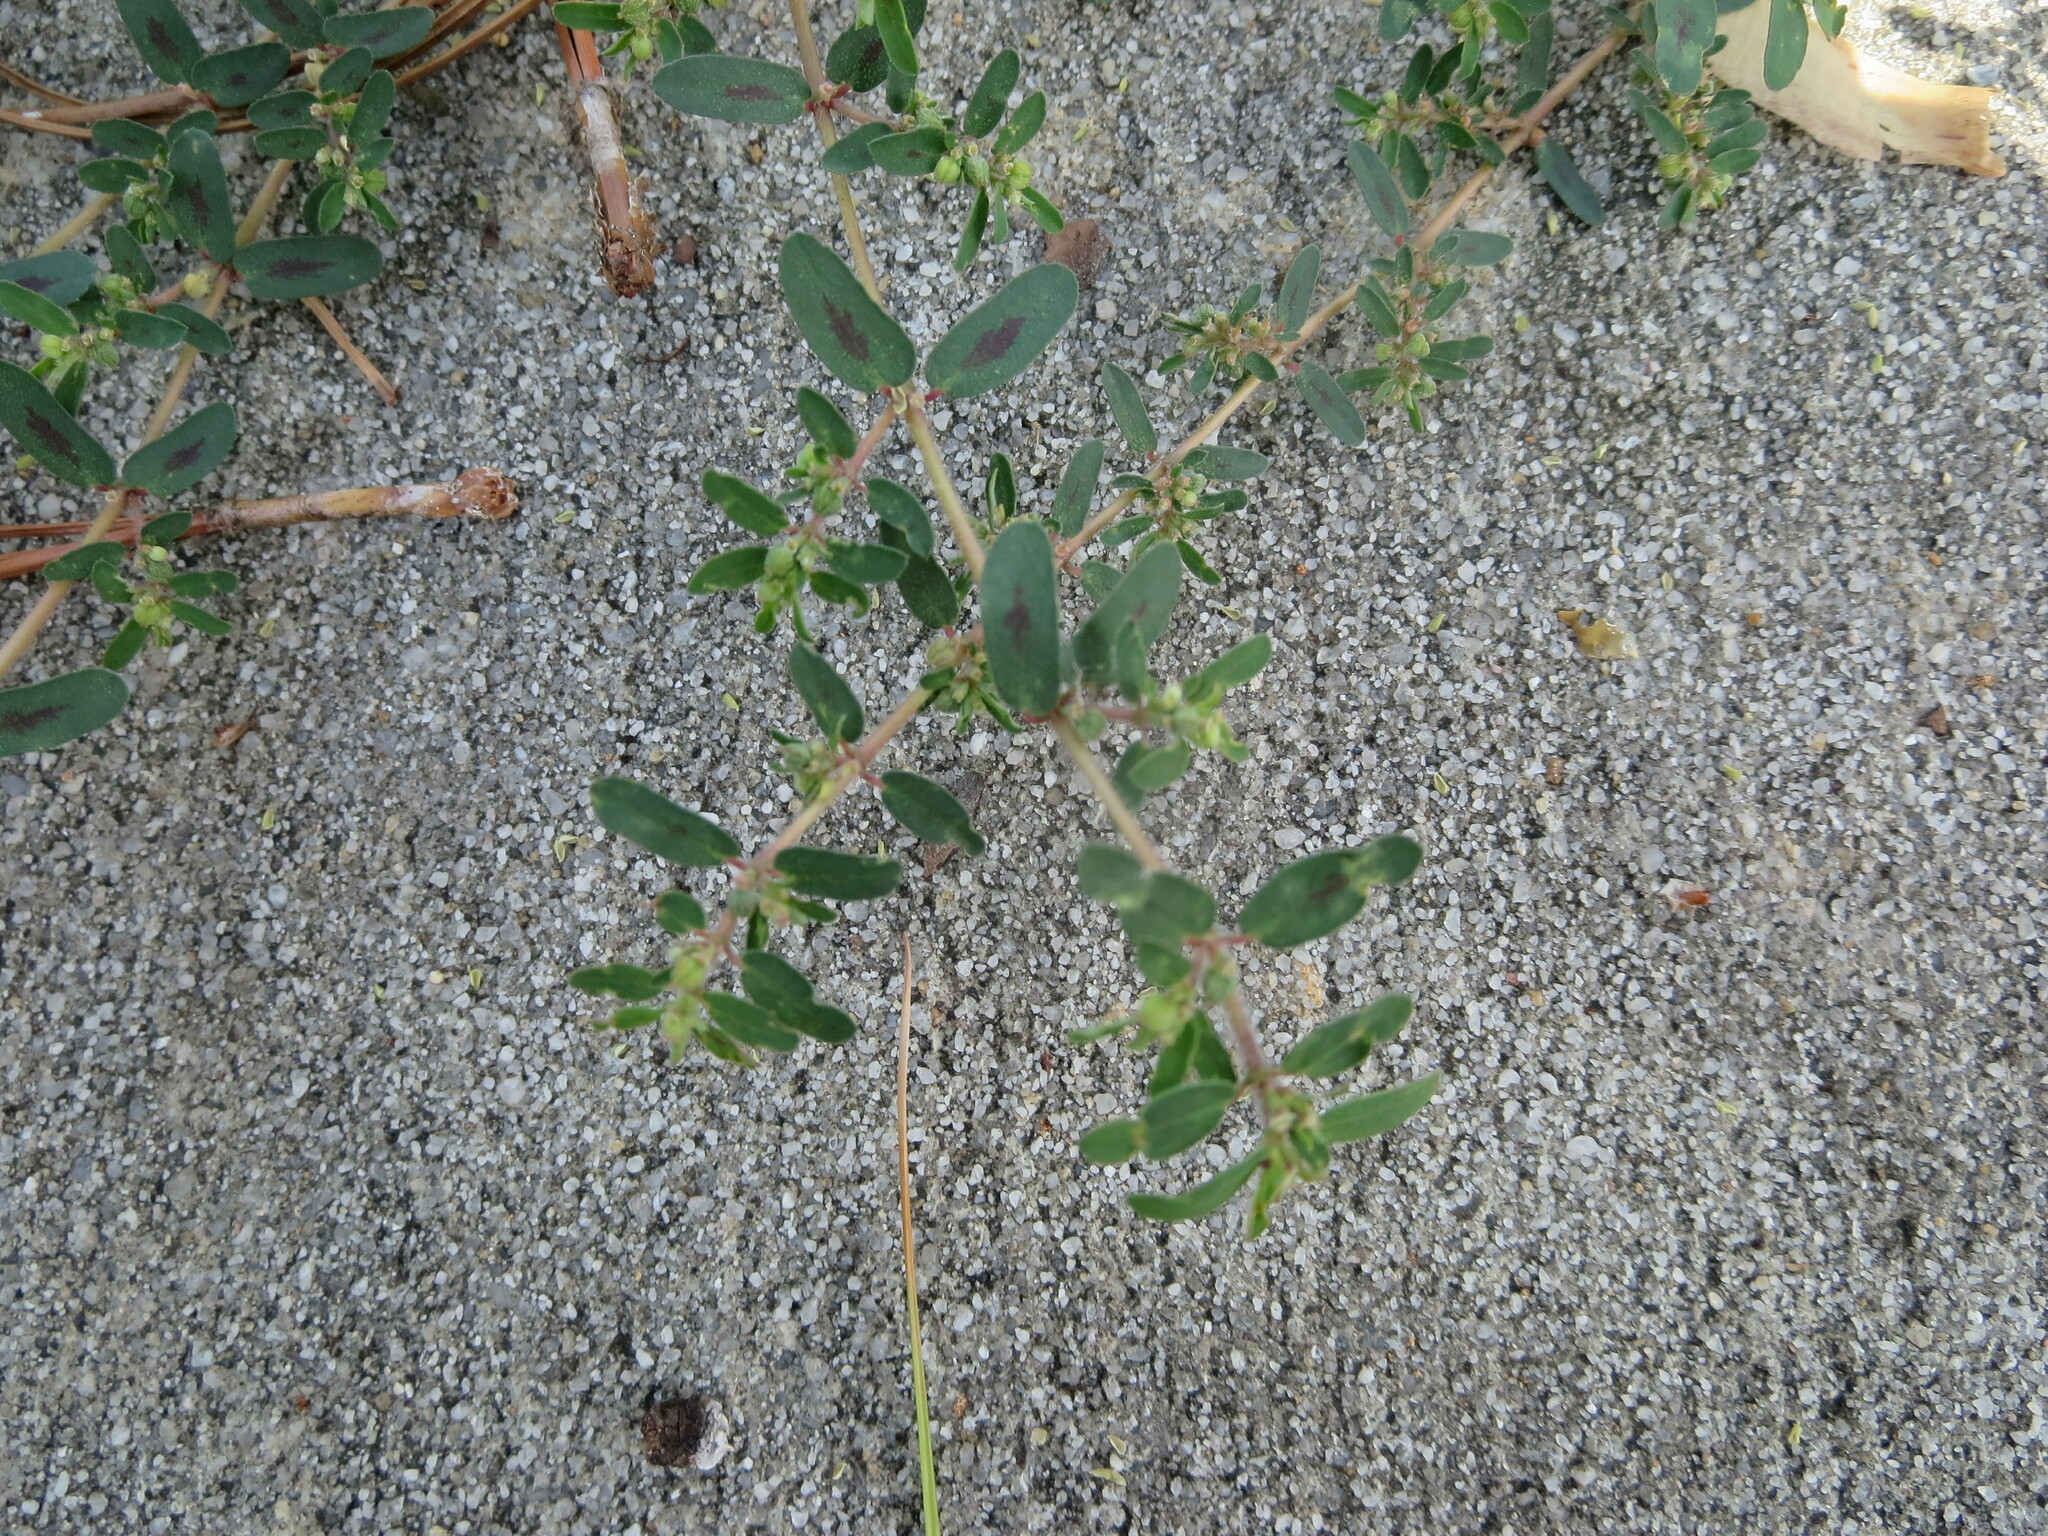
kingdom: Plantae
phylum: Tracheophyta
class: Magnoliopsida
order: Malpighiales
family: Euphorbiaceae
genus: Euphorbia
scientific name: Euphorbia maculata
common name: Spotted spurge
